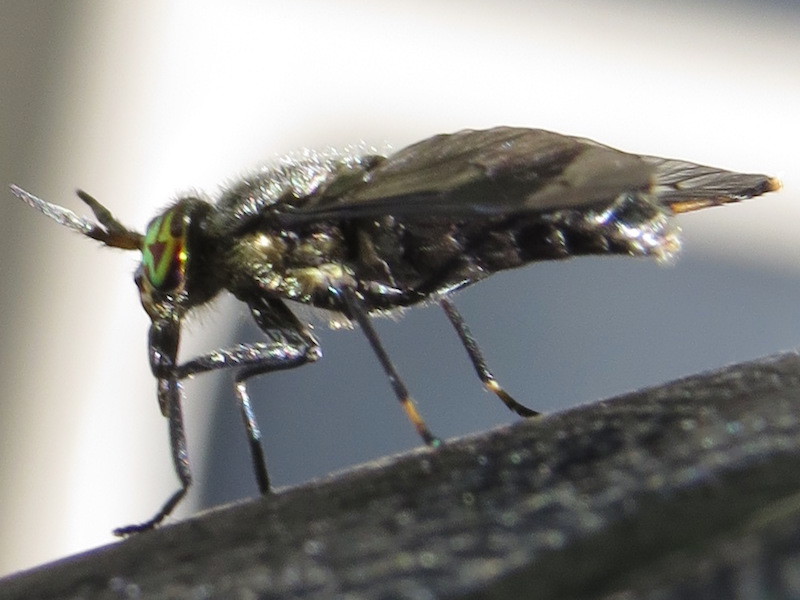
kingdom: Animalia
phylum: Arthropoda
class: Insecta
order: Diptera
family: Tabanidae
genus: Chrysops
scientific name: Chrysops niger
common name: Black deer fly
